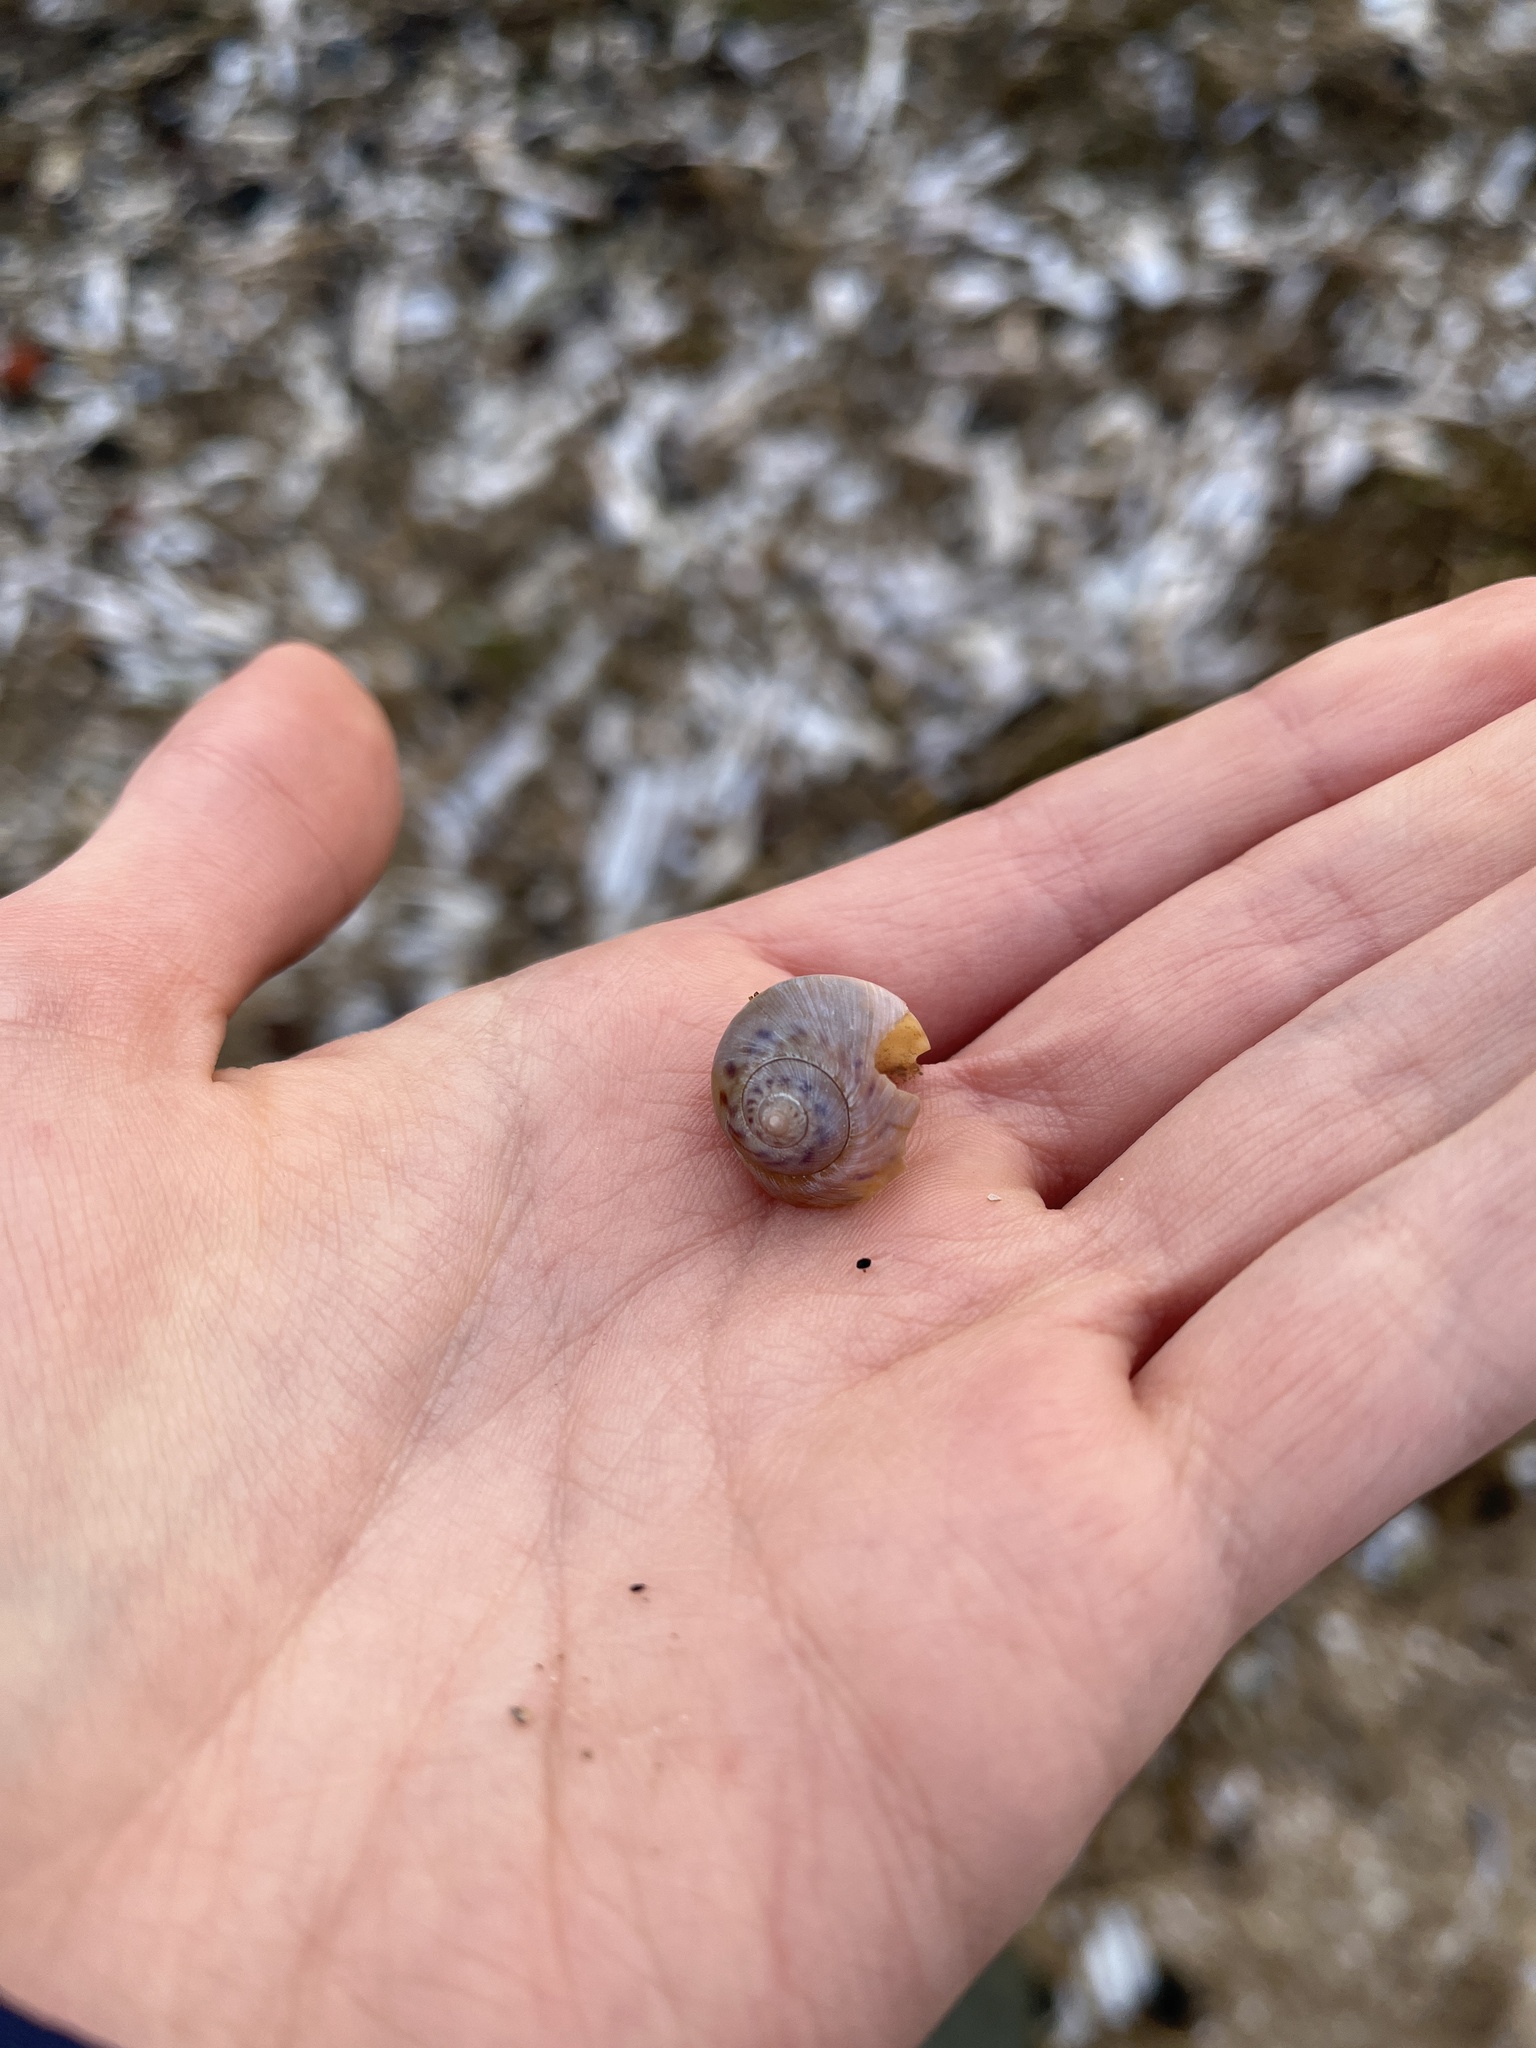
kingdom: Animalia
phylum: Mollusca
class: Gastropoda
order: Littorinimorpha
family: Naticidae
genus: Euspira
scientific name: Euspira catena
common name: Necklace shell
